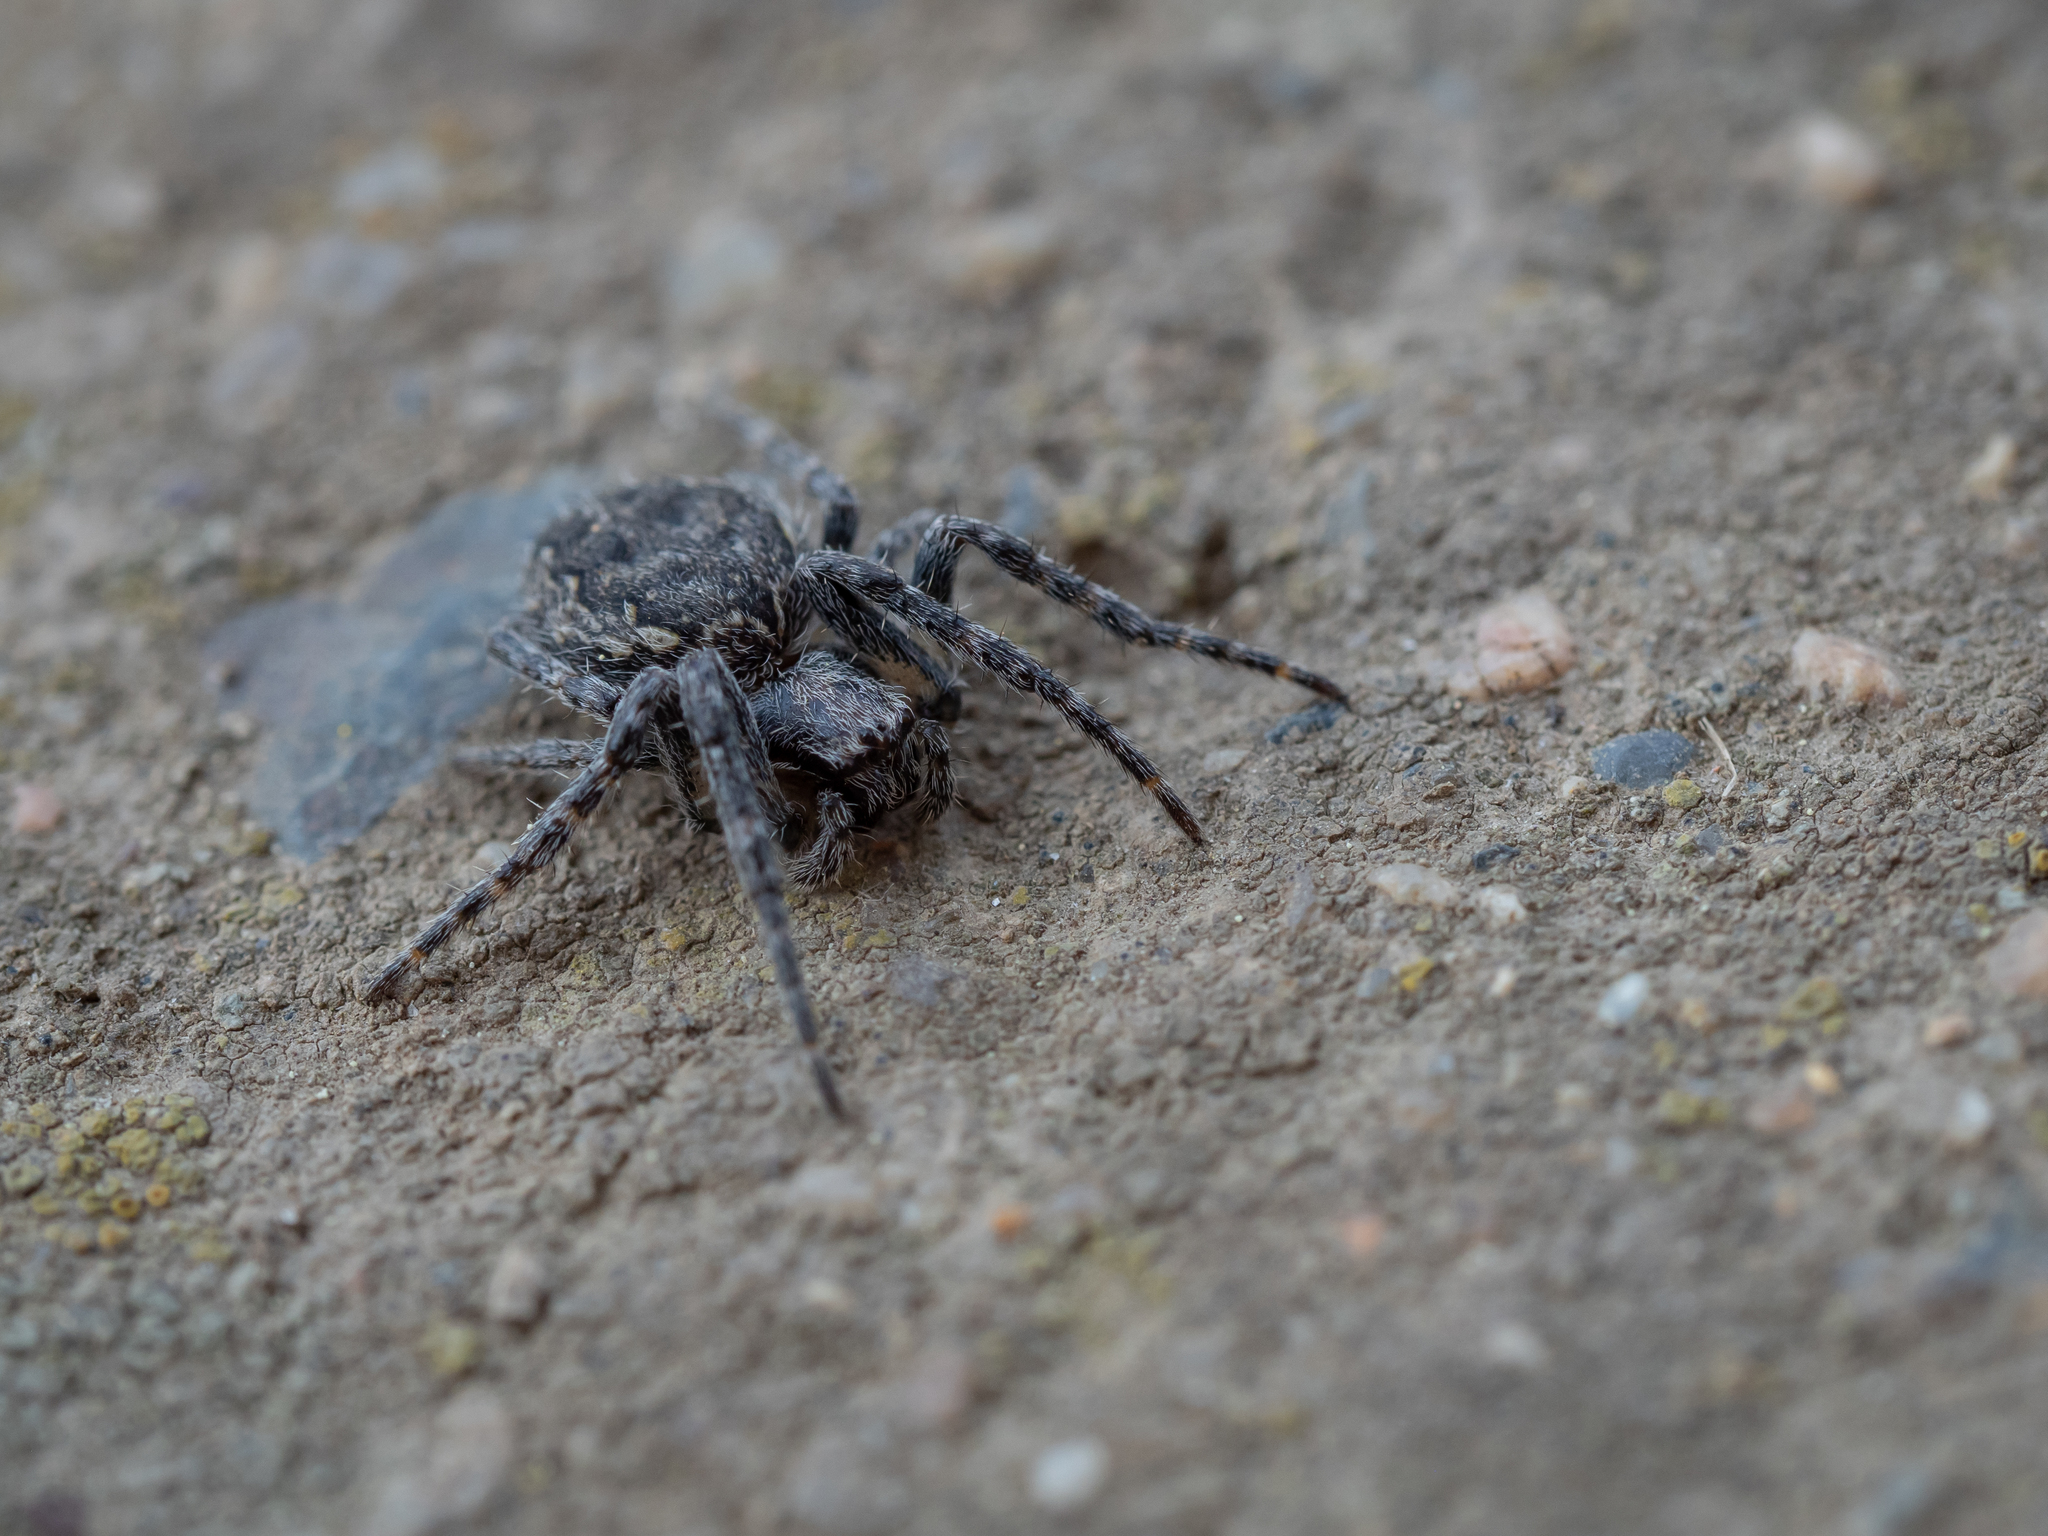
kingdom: Animalia
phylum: Arthropoda
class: Arachnida
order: Araneae
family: Araneidae
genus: Nuctenea
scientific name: Nuctenea umbratica
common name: Toad spider
